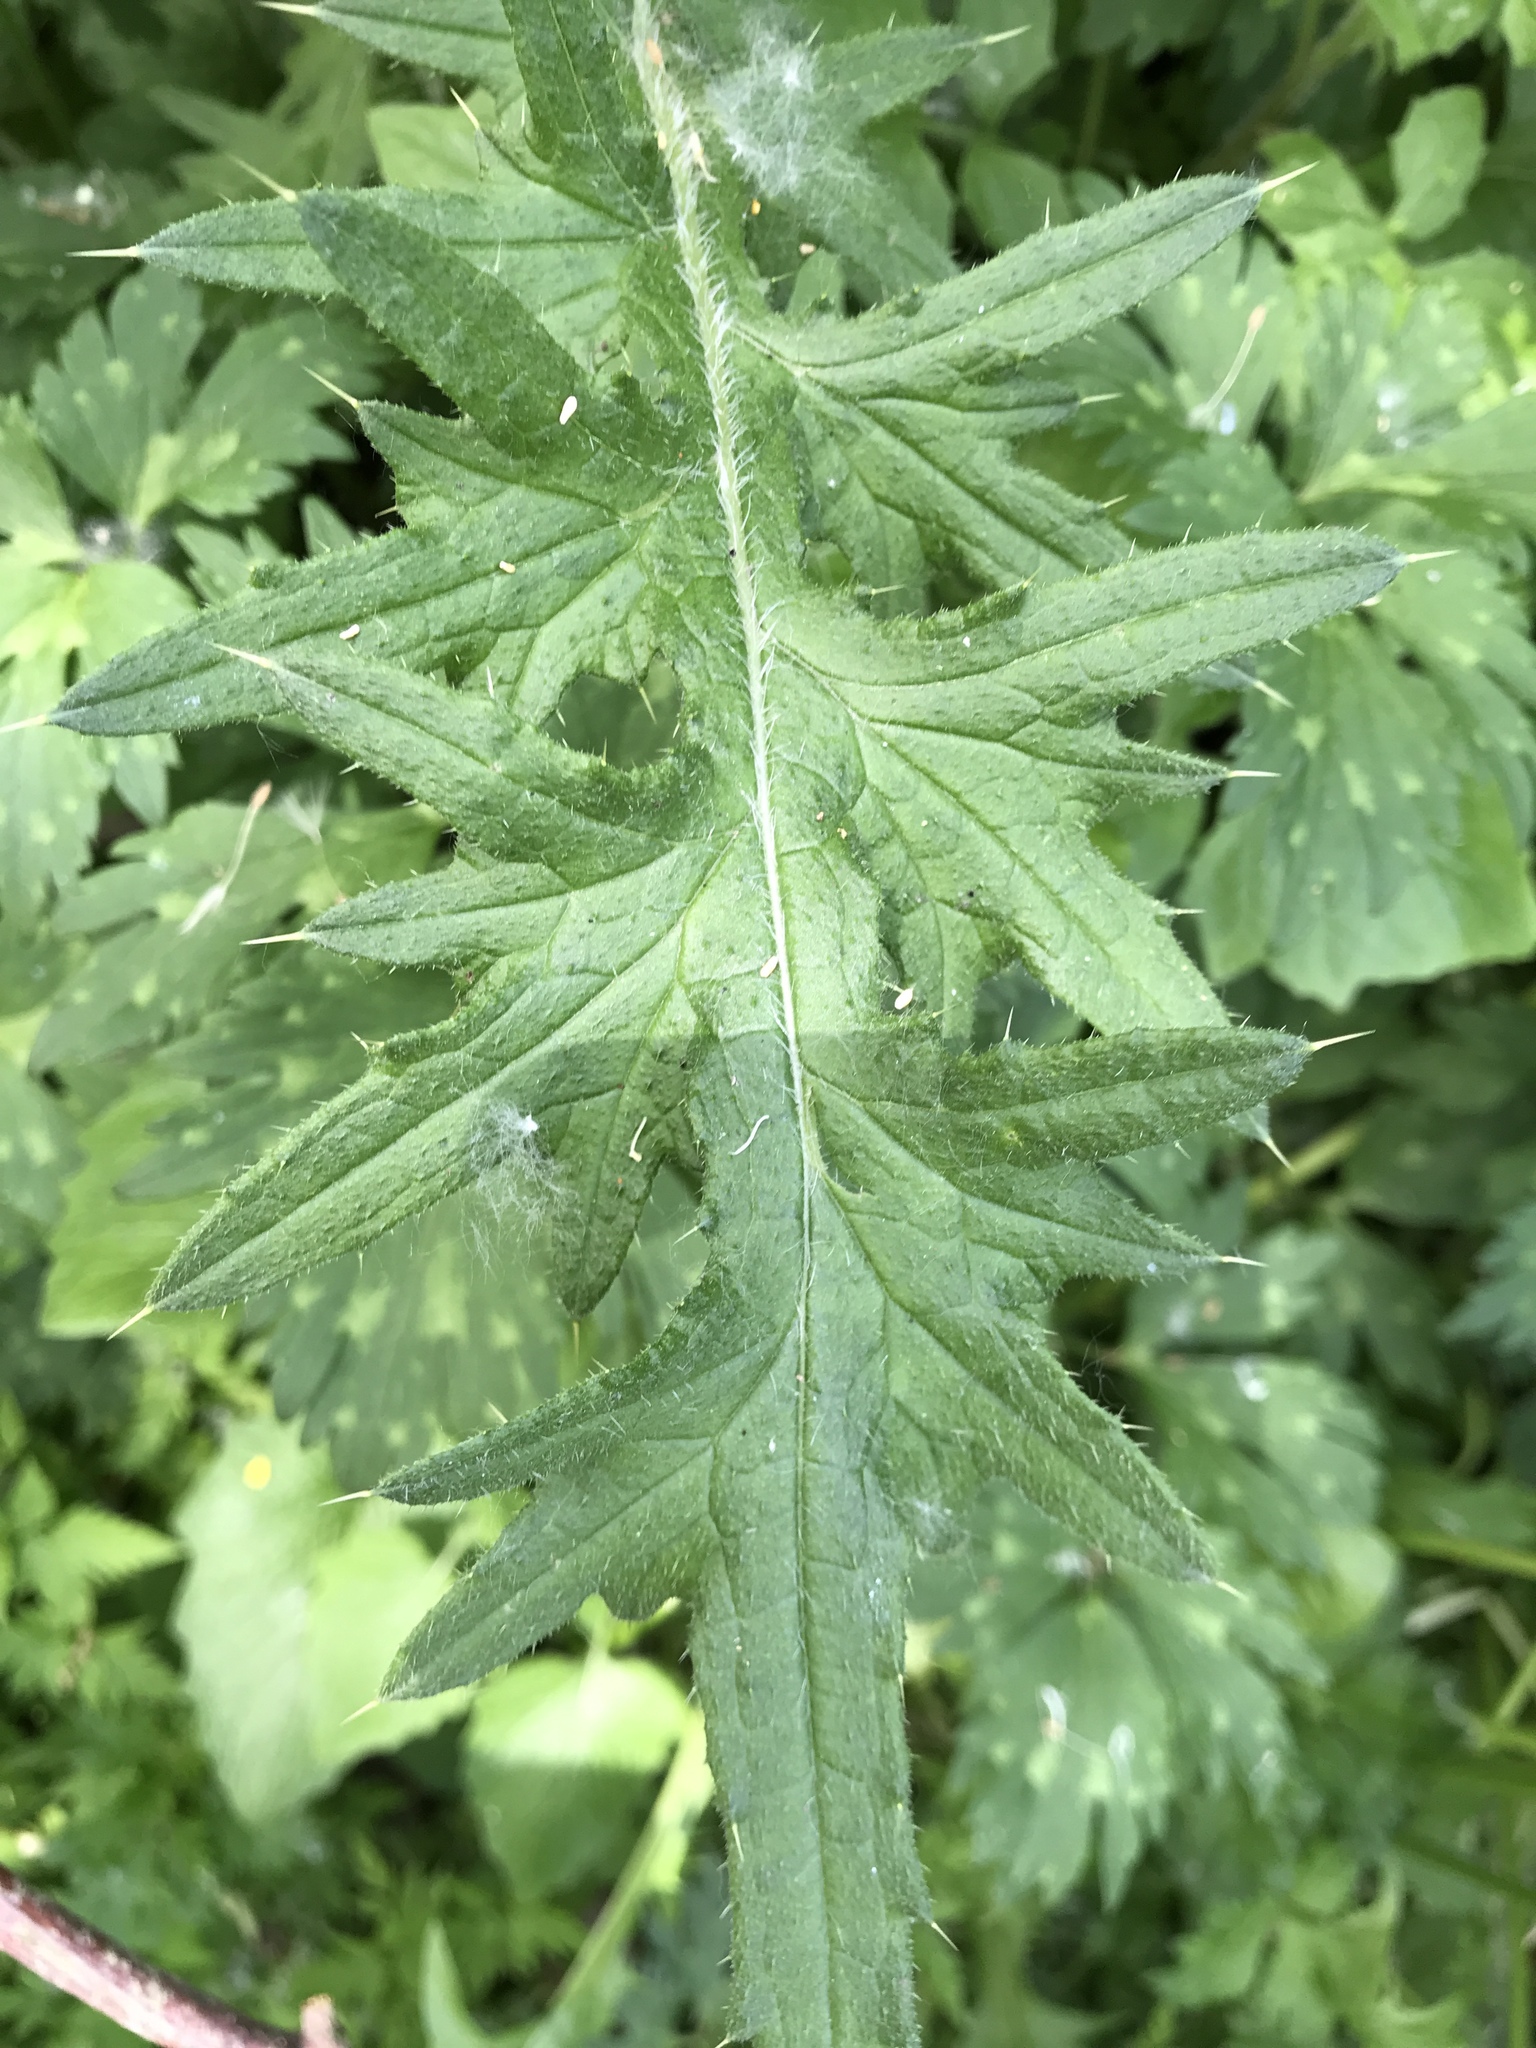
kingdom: Plantae
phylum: Tracheophyta
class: Magnoliopsida
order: Asterales
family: Asteraceae
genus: Cirsium
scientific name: Cirsium vulgare
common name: Bull thistle
